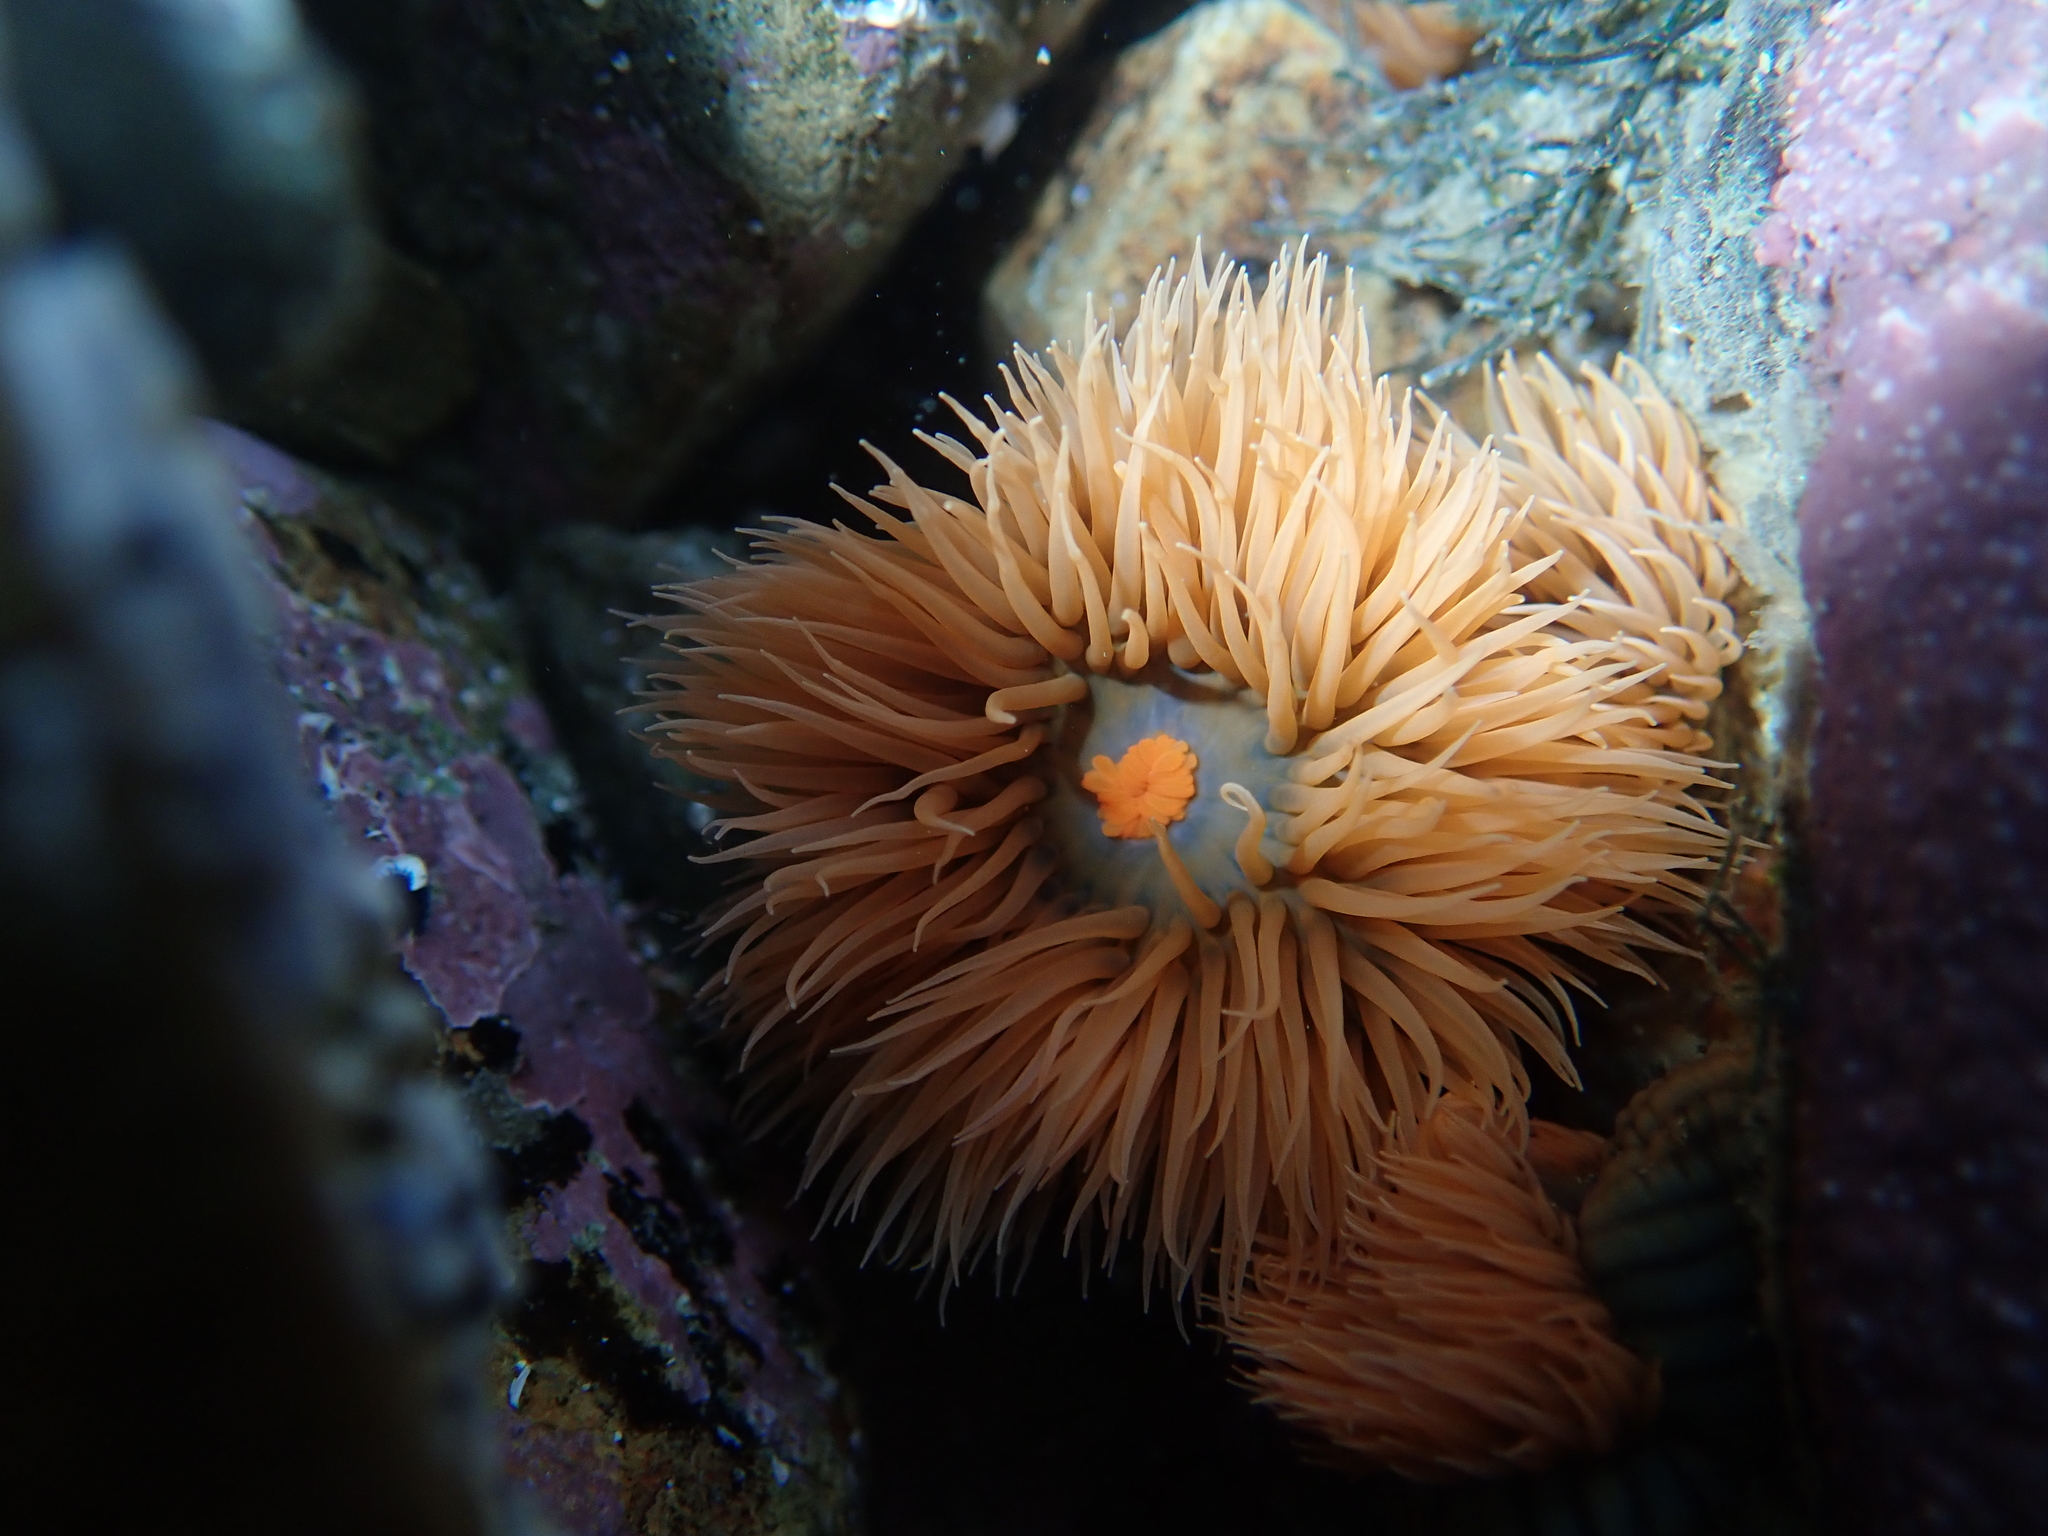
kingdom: Animalia
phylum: Cnidaria
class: Anthozoa
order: Actiniaria
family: Diadumenidae
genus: Diadumene
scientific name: Diadumene neozelanica
